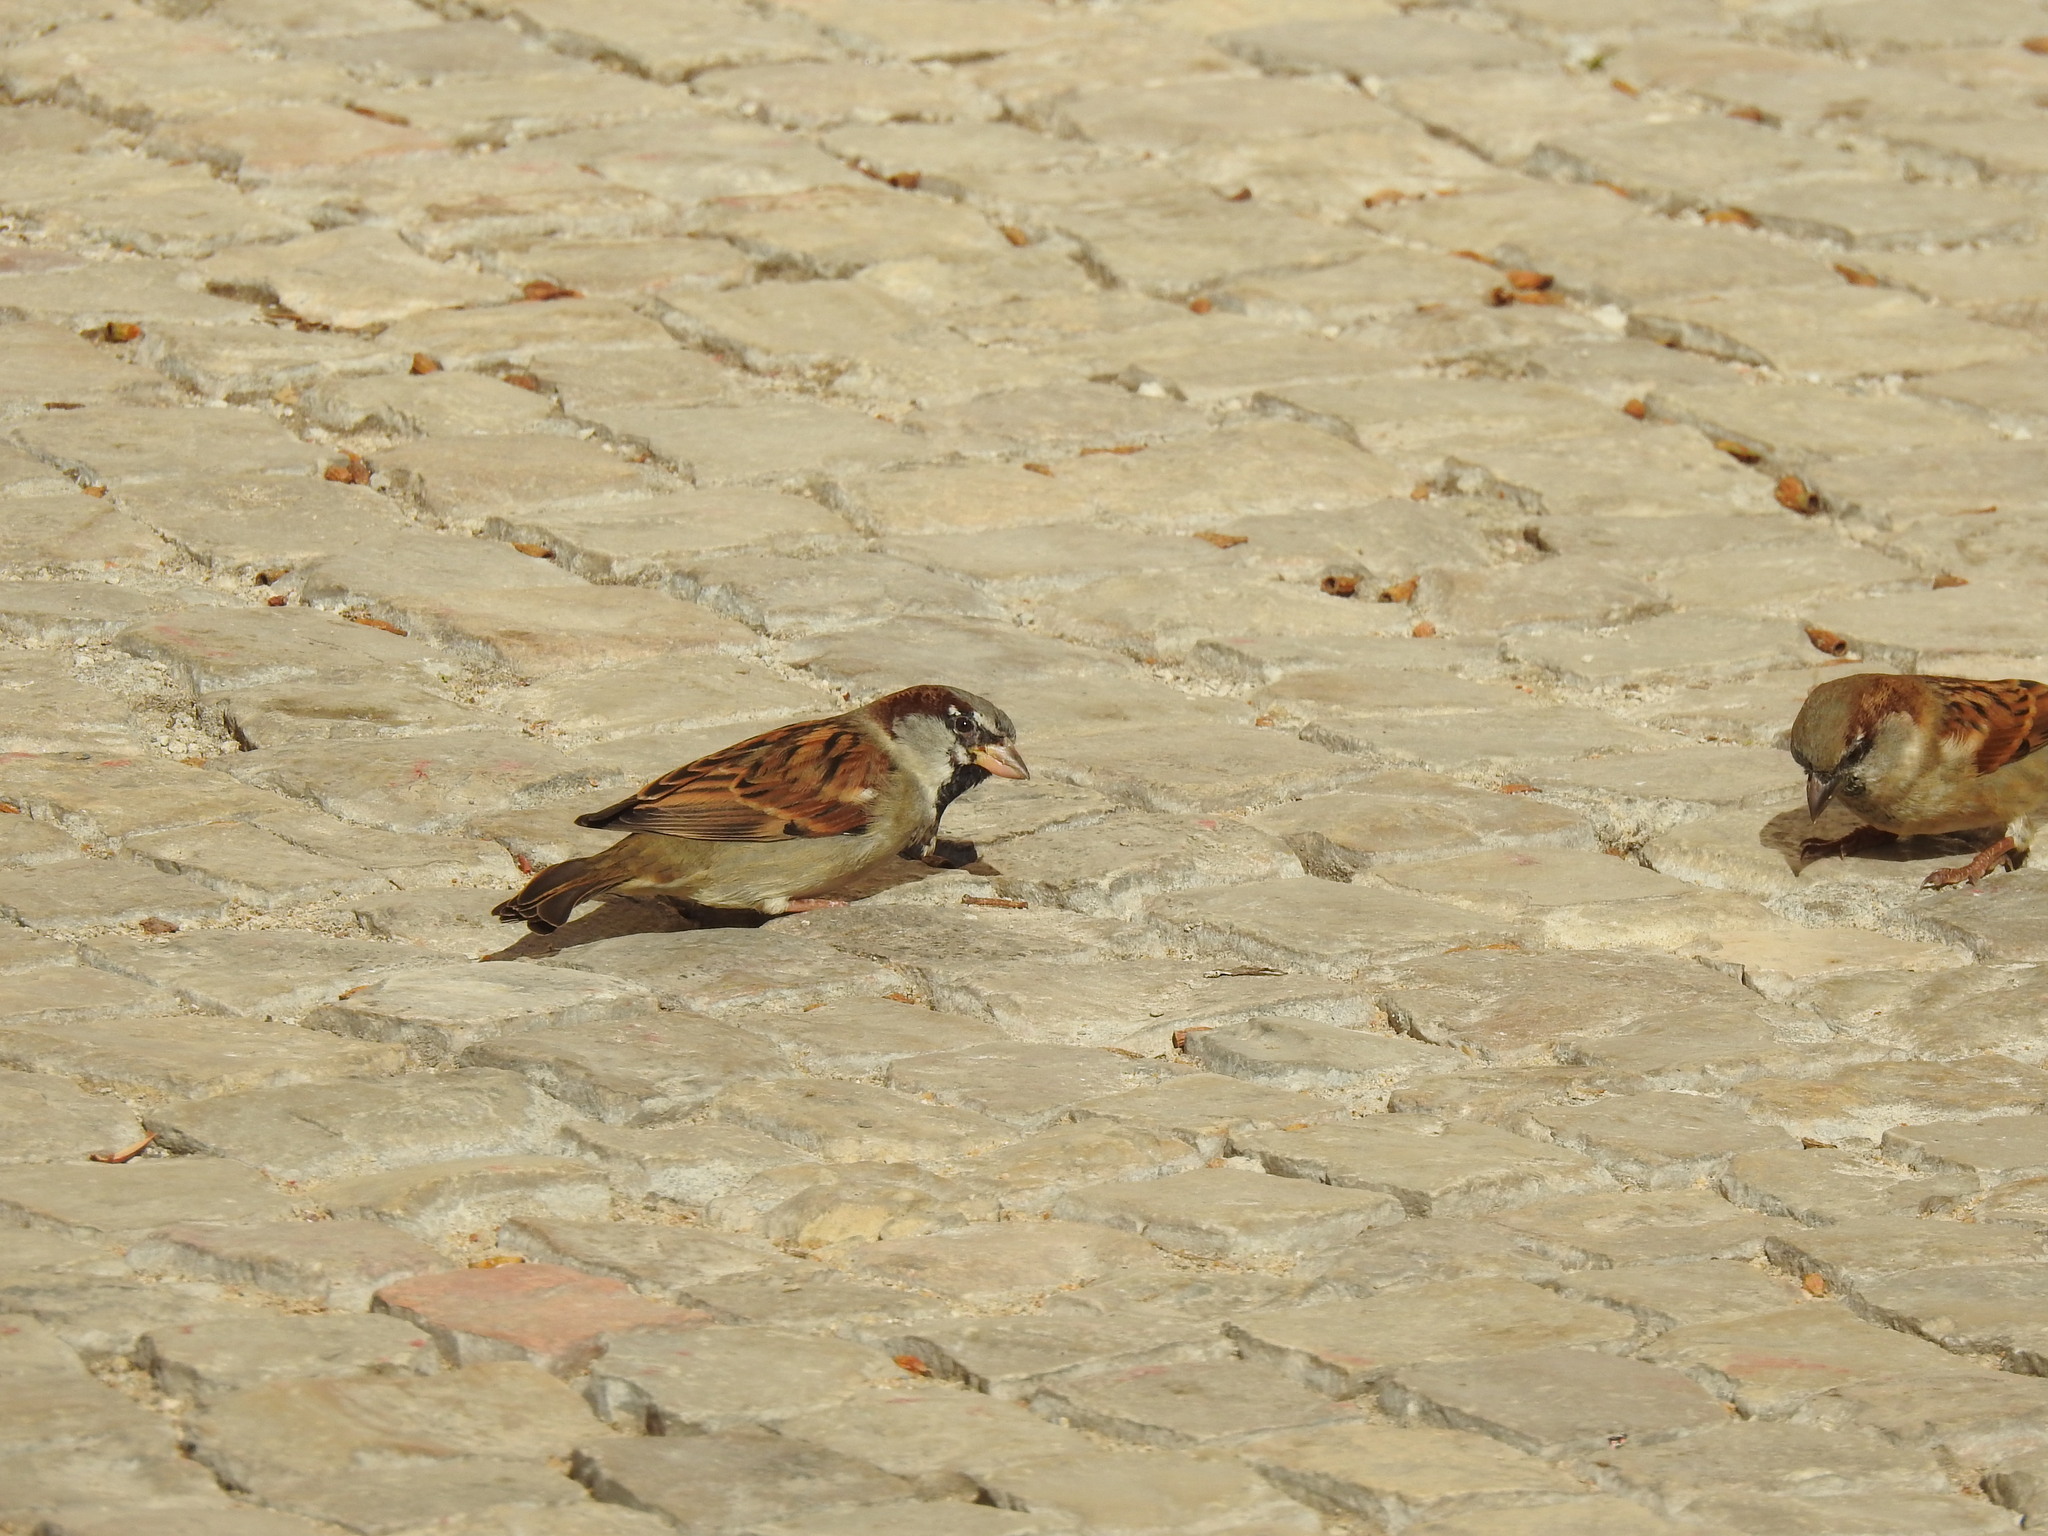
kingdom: Animalia
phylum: Chordata
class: Aves
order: Passeriformes
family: Passeridae
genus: Passer
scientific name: Passer domesticus
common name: House sparrow
